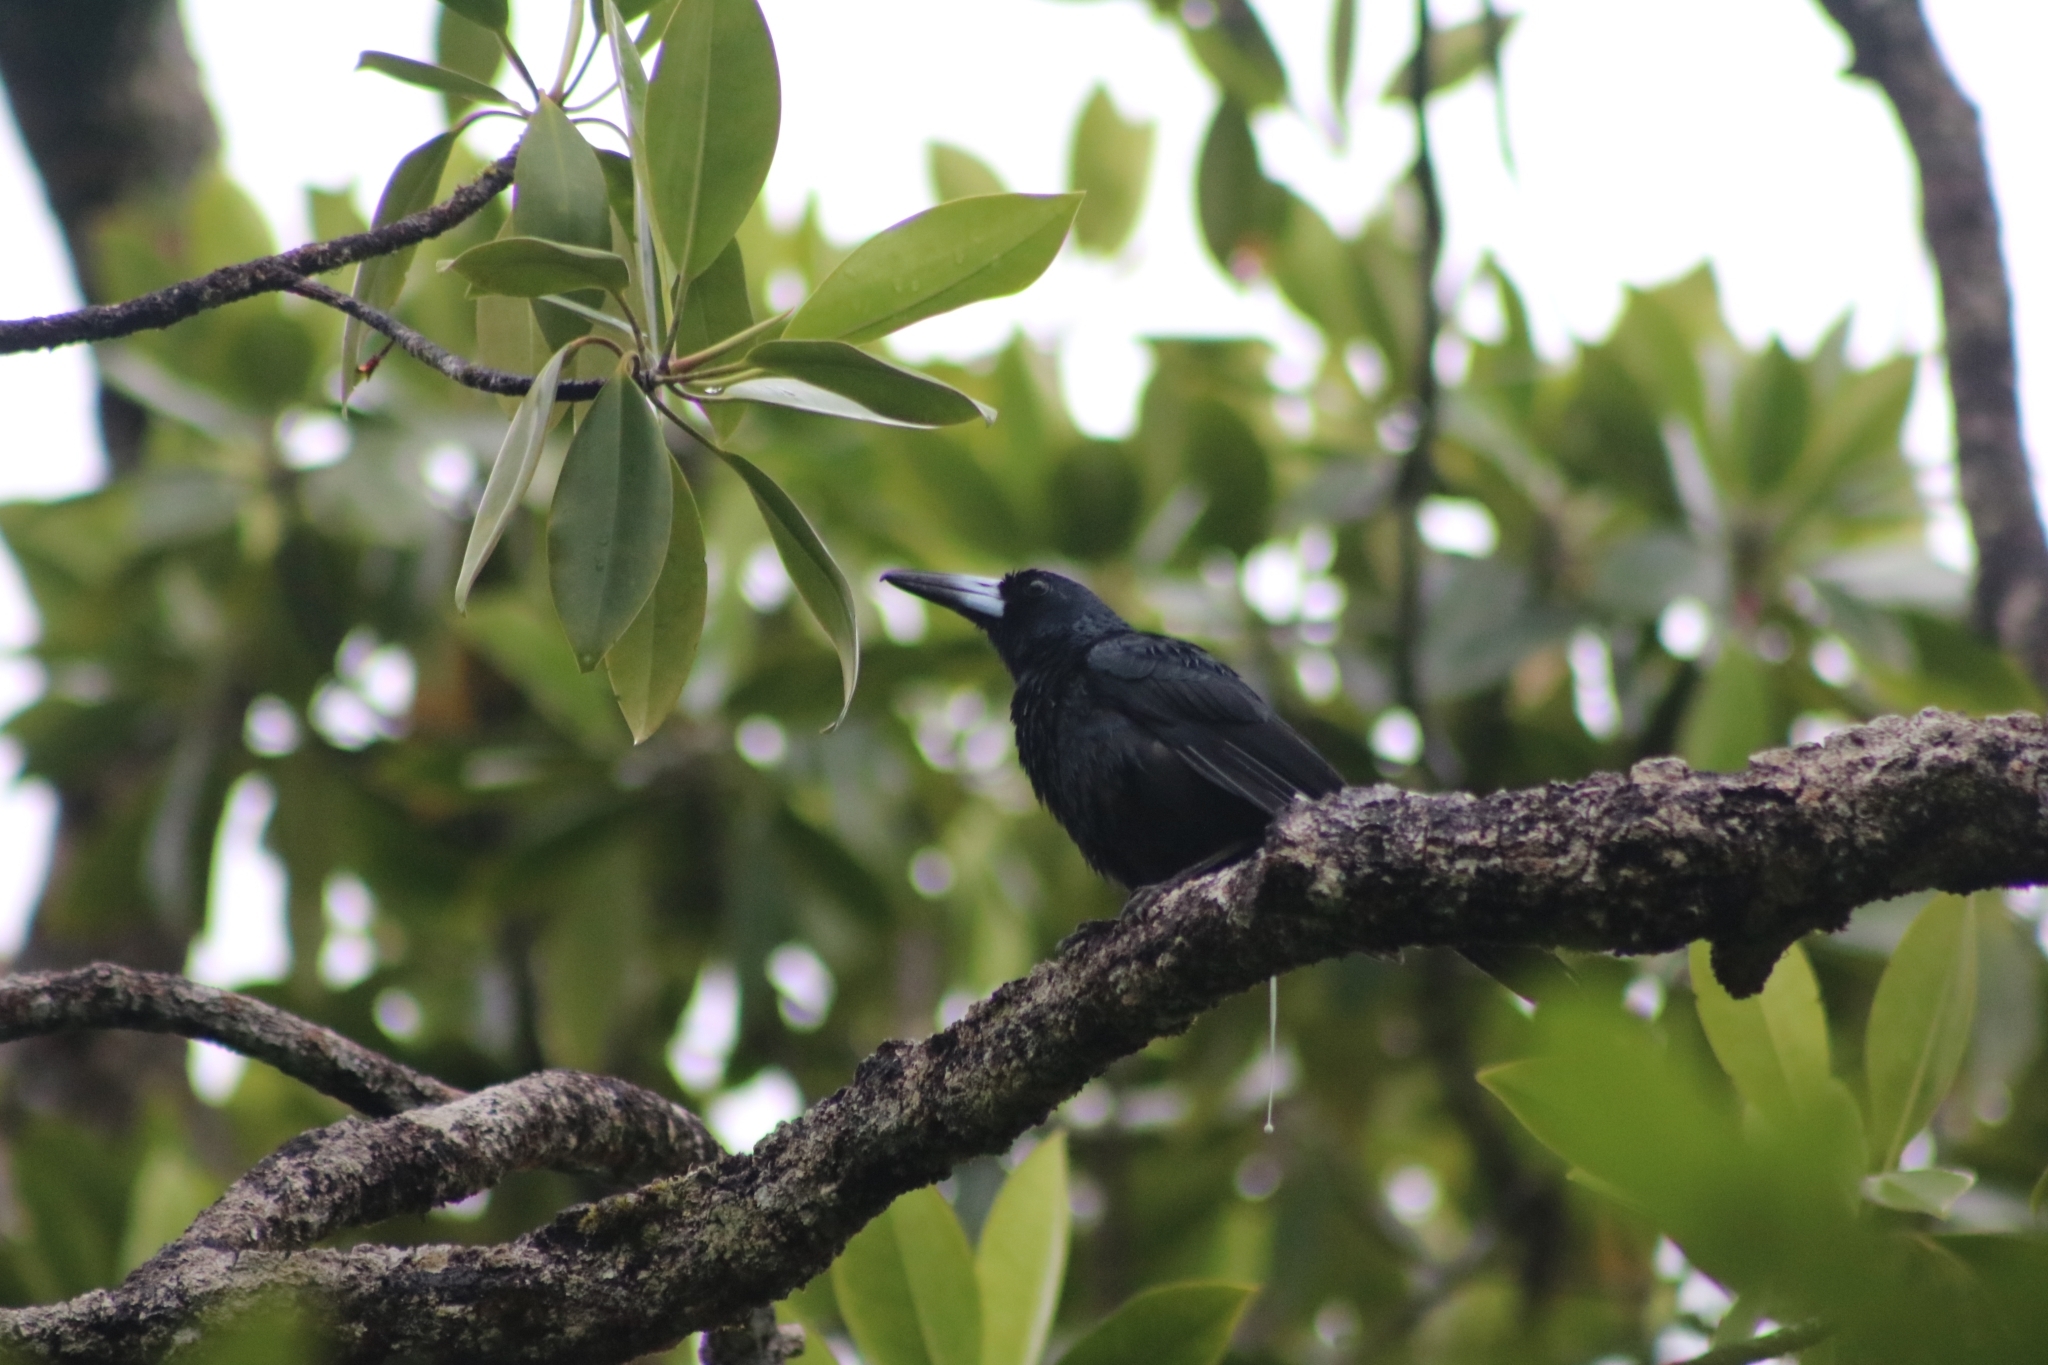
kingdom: Animalia
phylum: Chordata
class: Aves
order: Passeriformes
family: Artamidae
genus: Melloria
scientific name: Melloria quoyi
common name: Black butcherbird
